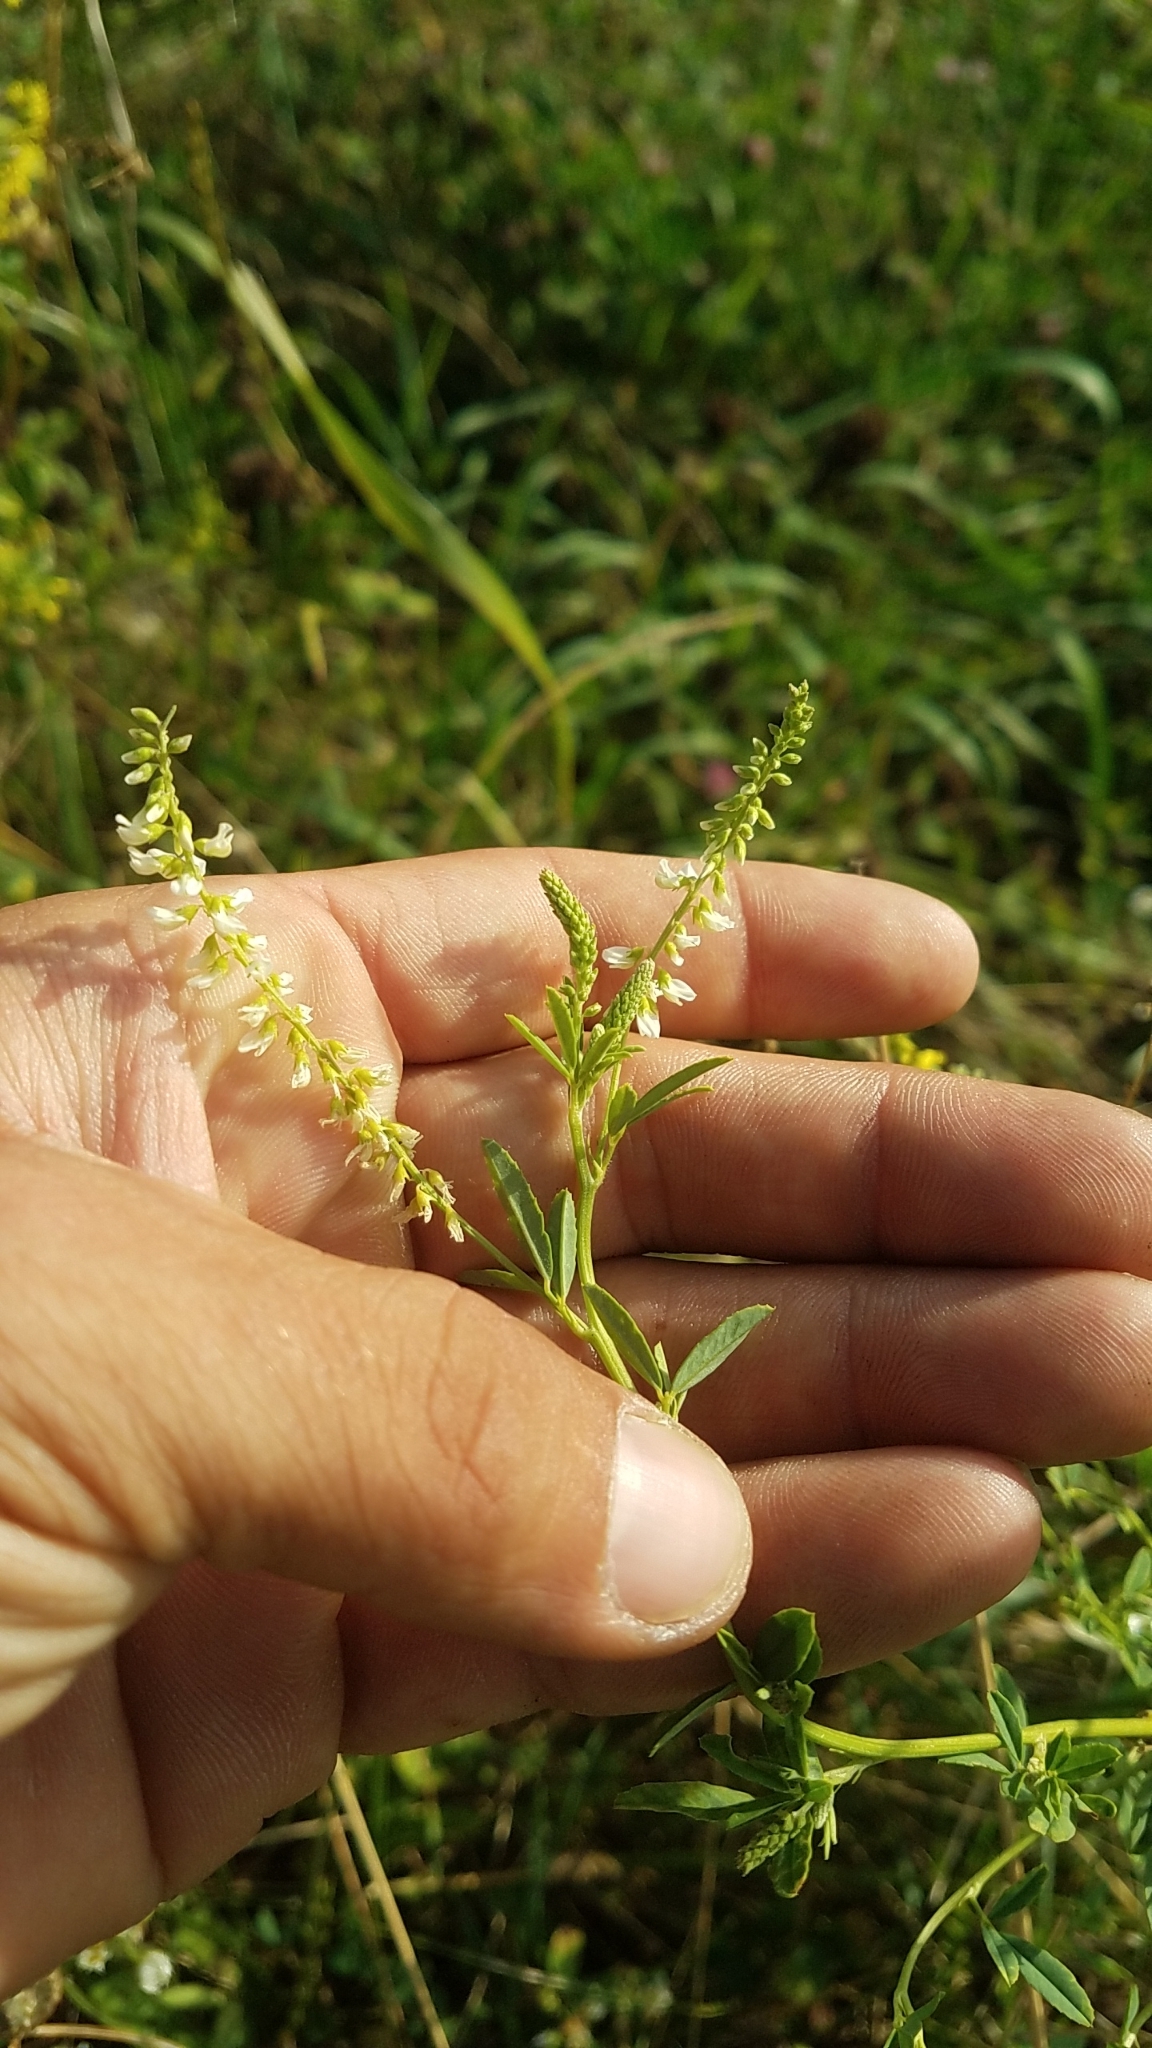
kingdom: Plantae
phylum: Tracheophyta
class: Magnoliopsida
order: Fabales
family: Fabaceae
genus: Melilotus
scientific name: Melilotus albus
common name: White melilot
